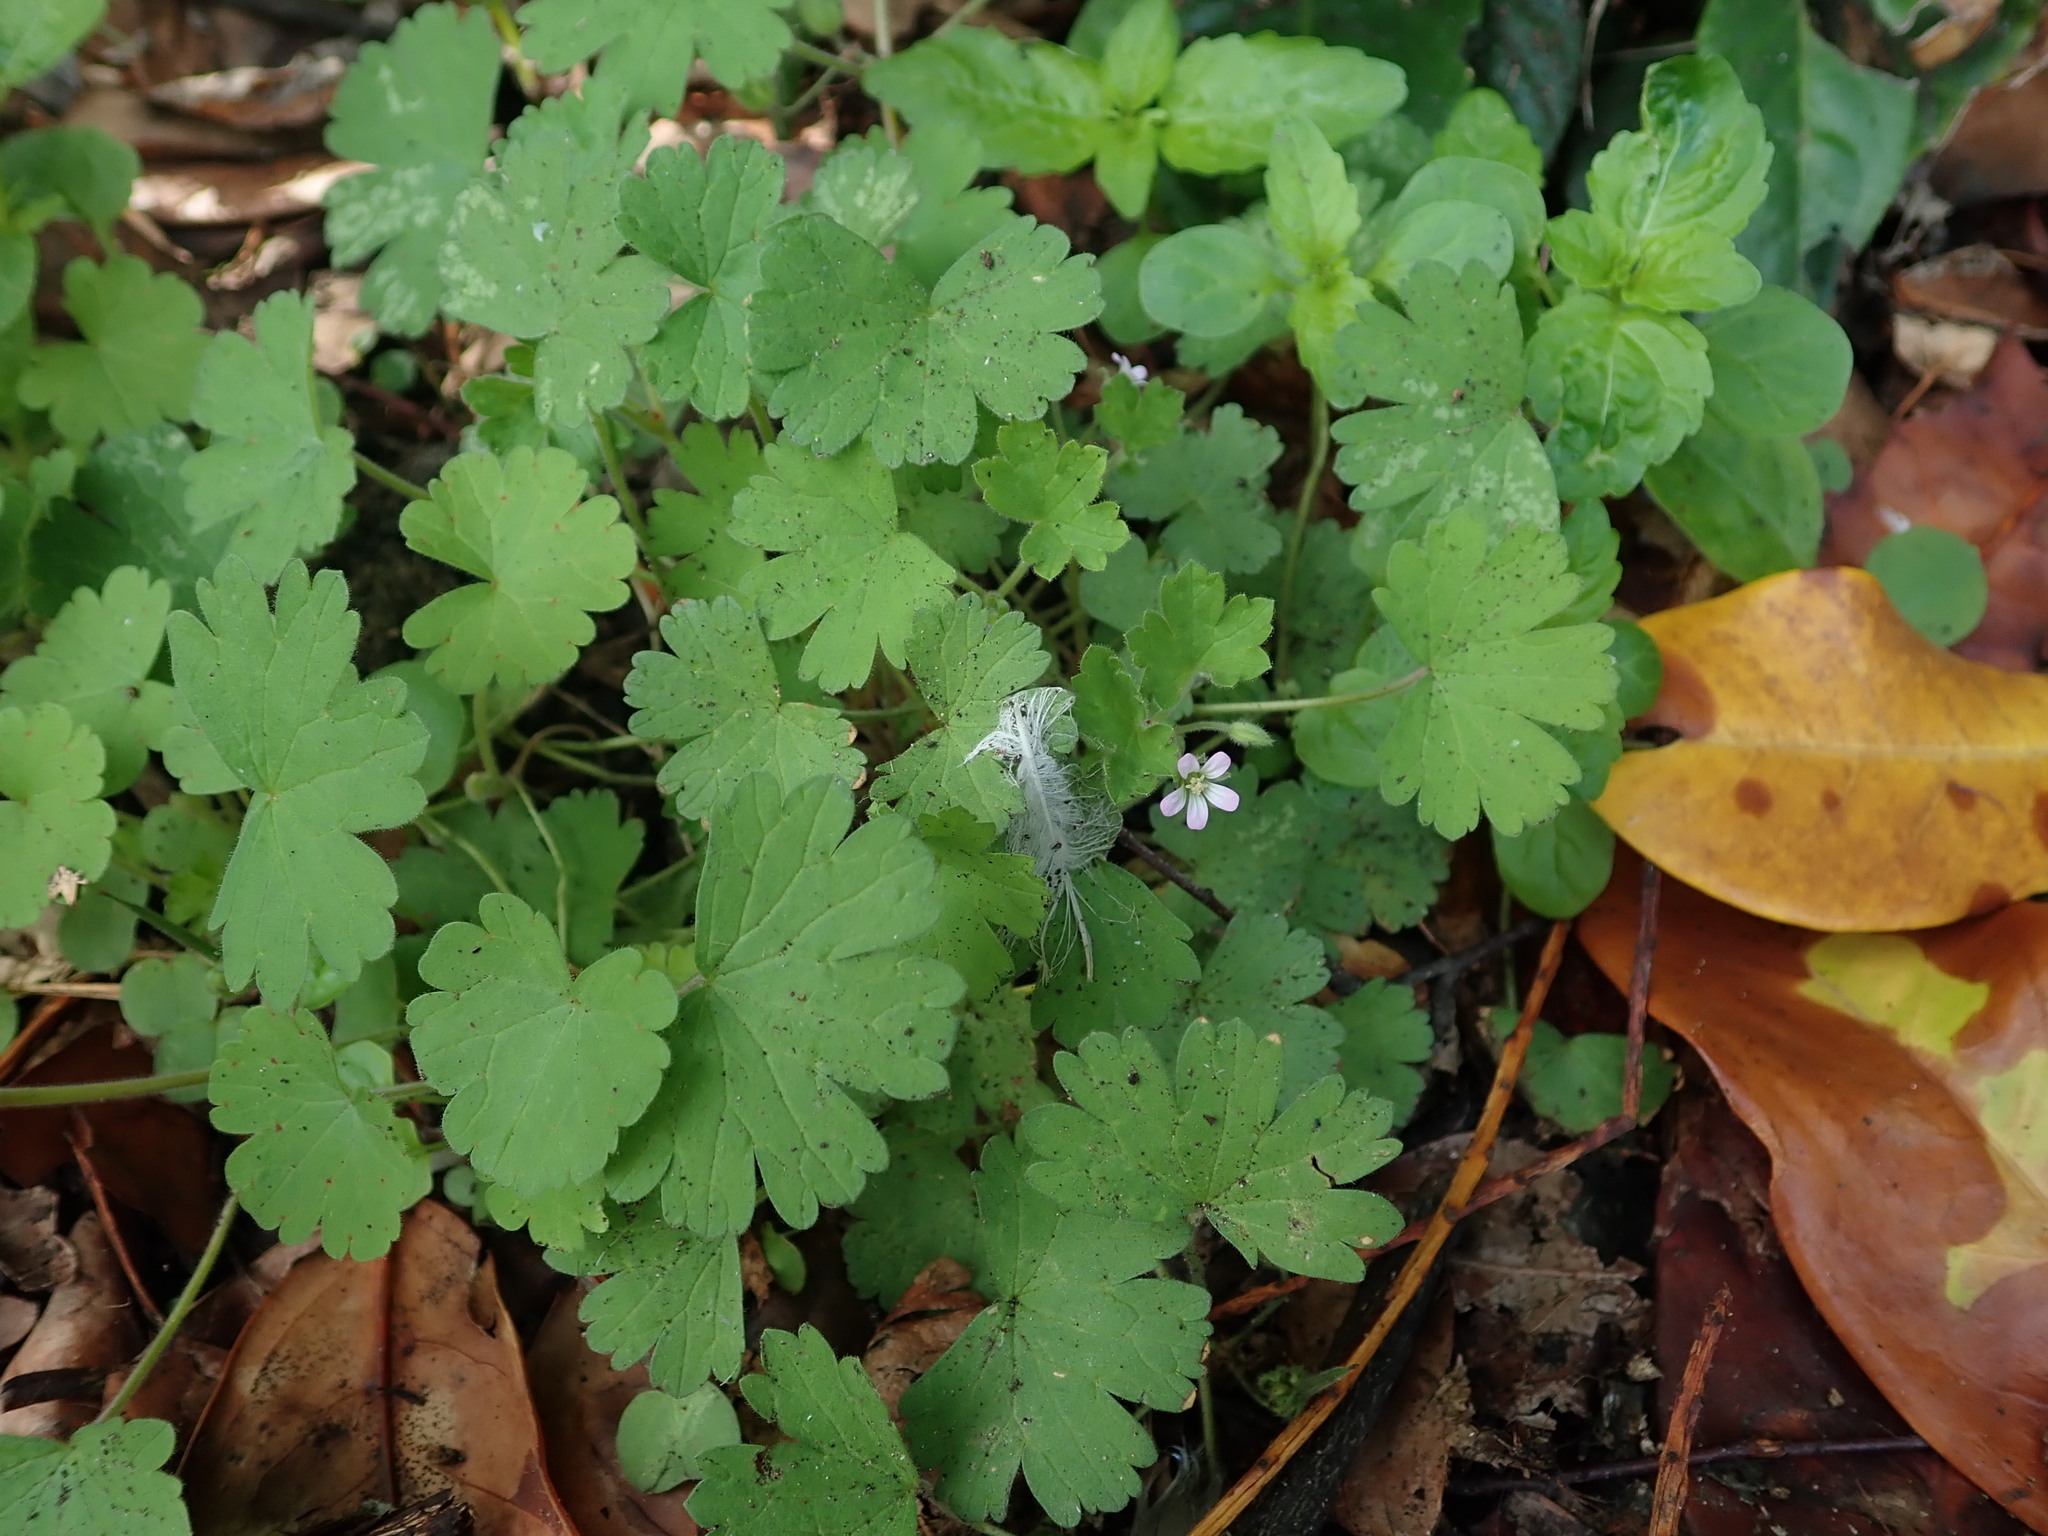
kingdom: Plantae
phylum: Tracheophyta
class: Magnoliopsida
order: Geraniales
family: Geraniaceae
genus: Geranium
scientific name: Geranium rotundifolium
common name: Round-leaved crane's-bill
